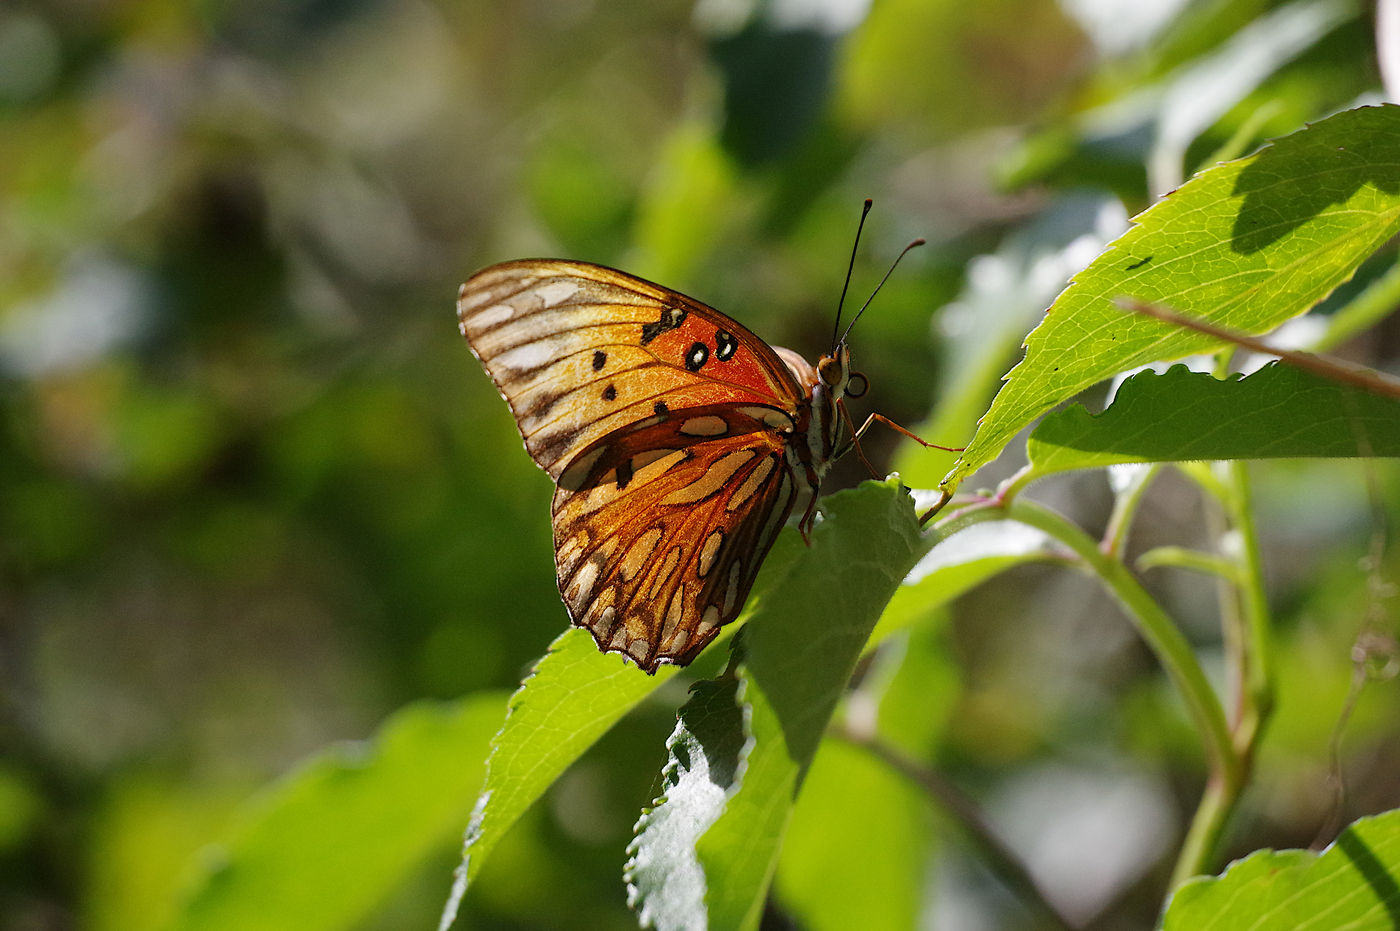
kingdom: Animalia
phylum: Arthropoda
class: Insecta
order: Lepidoptera
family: Nymphalidae
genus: Dione
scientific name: Dione vanillae
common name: Gulf fritillary
